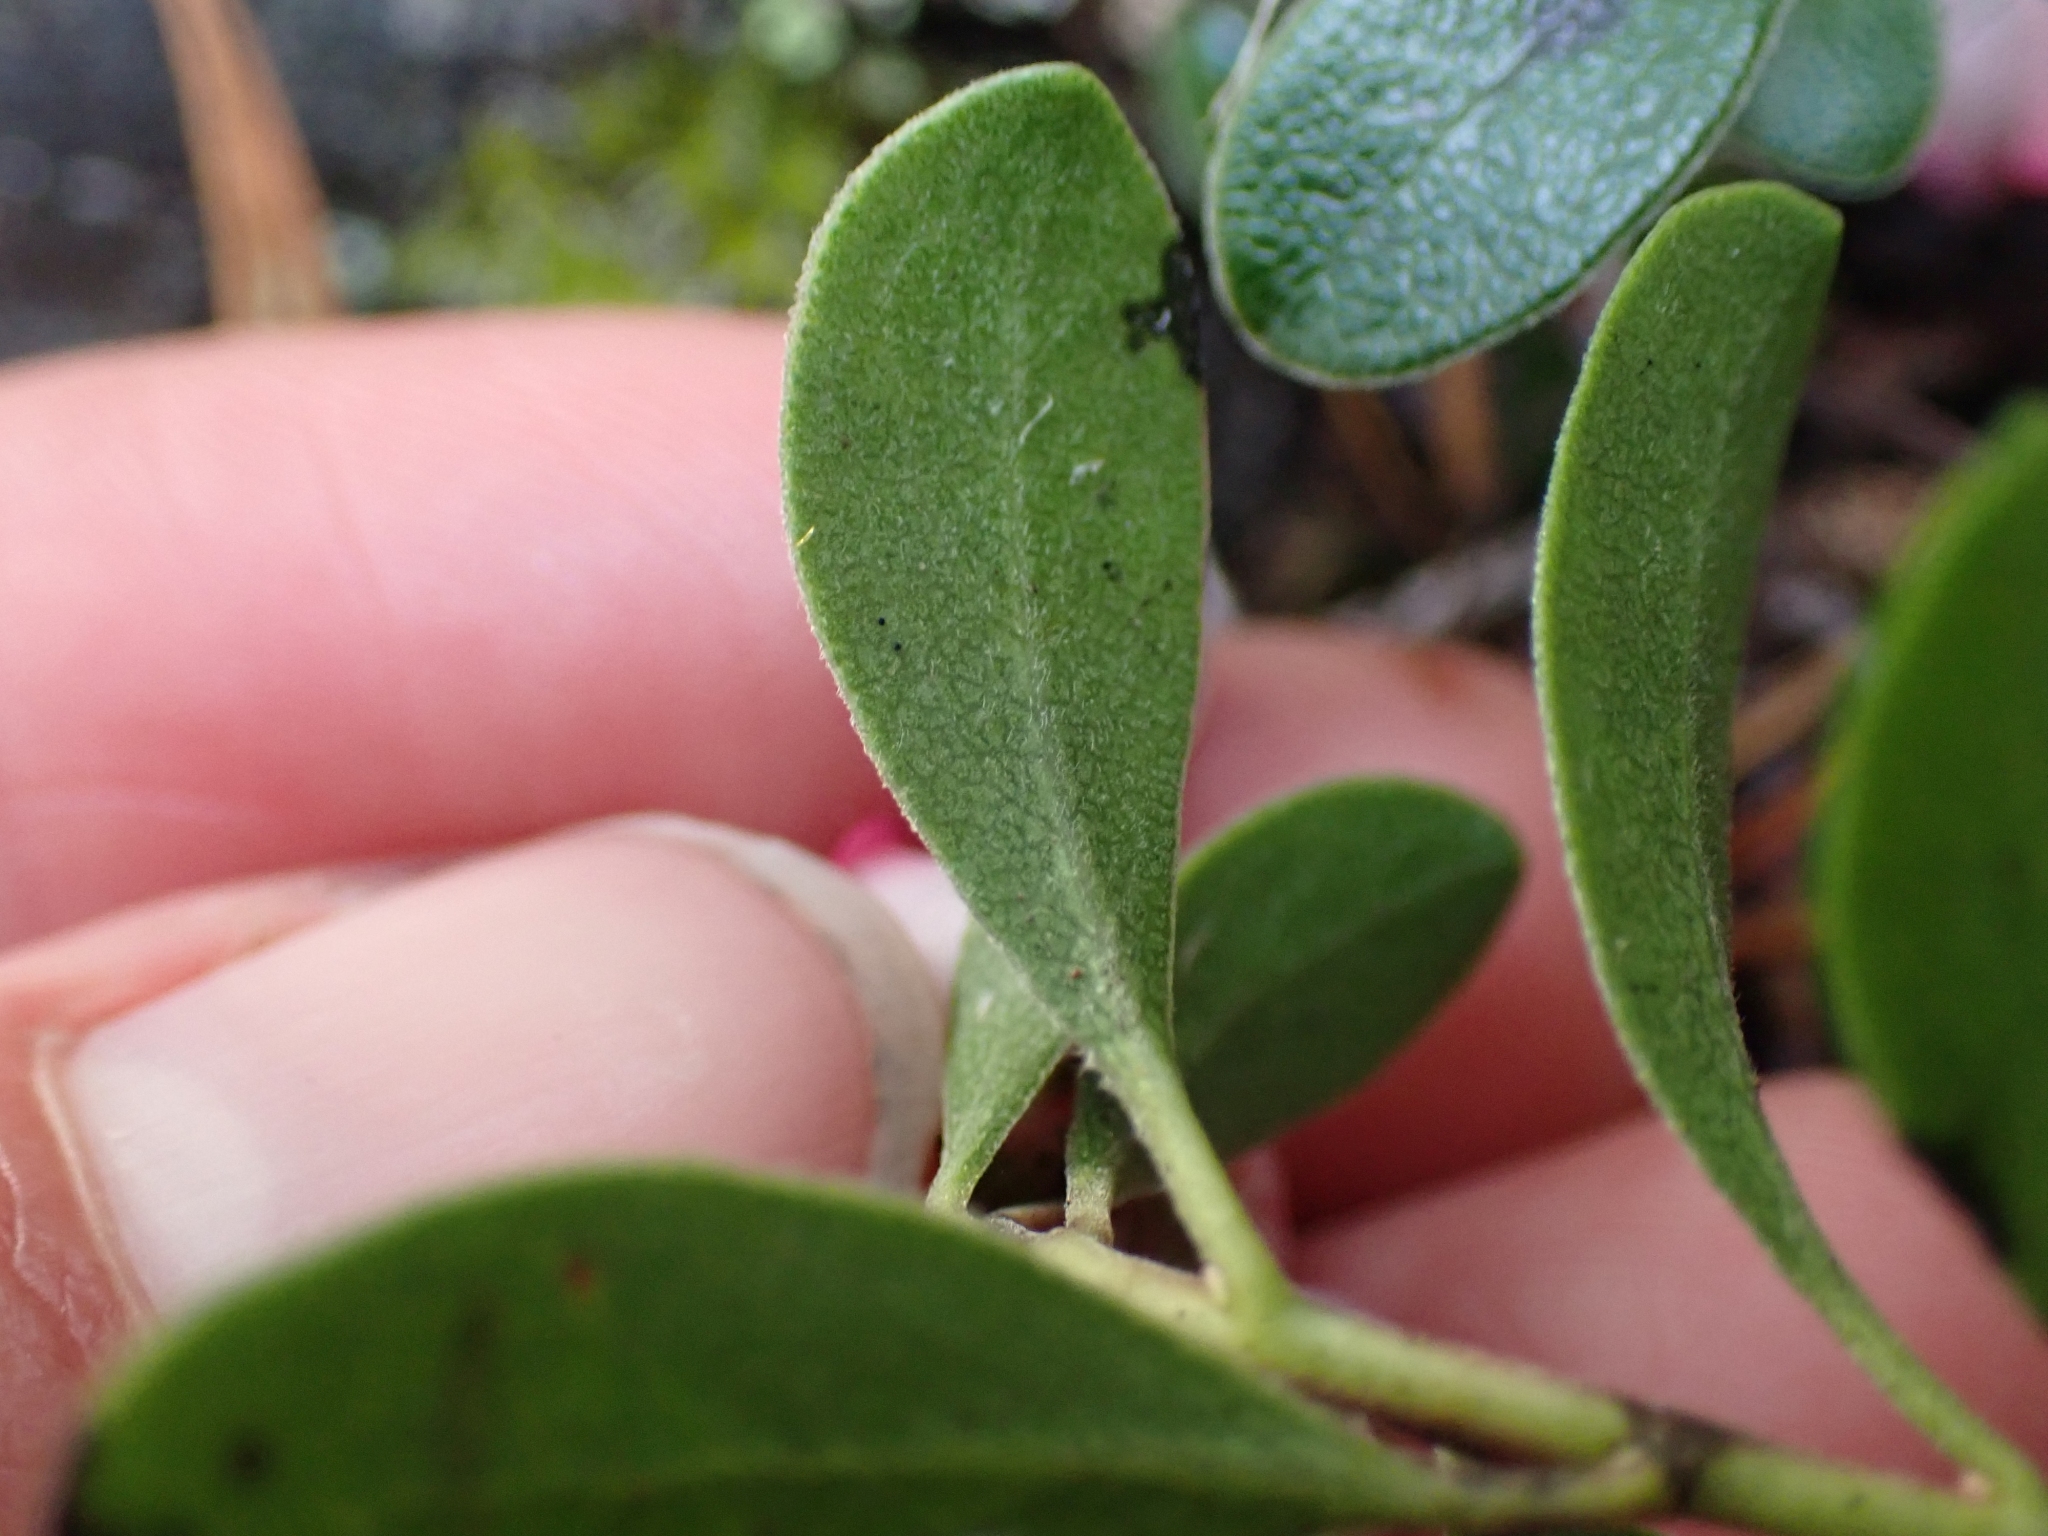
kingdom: Plantae
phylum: Tracheophyta
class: Magnoliopsida
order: Ericales
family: Ericaceae
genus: Arctostaphylos
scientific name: Arctostaphylos uva-ursi
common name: Bearberry
